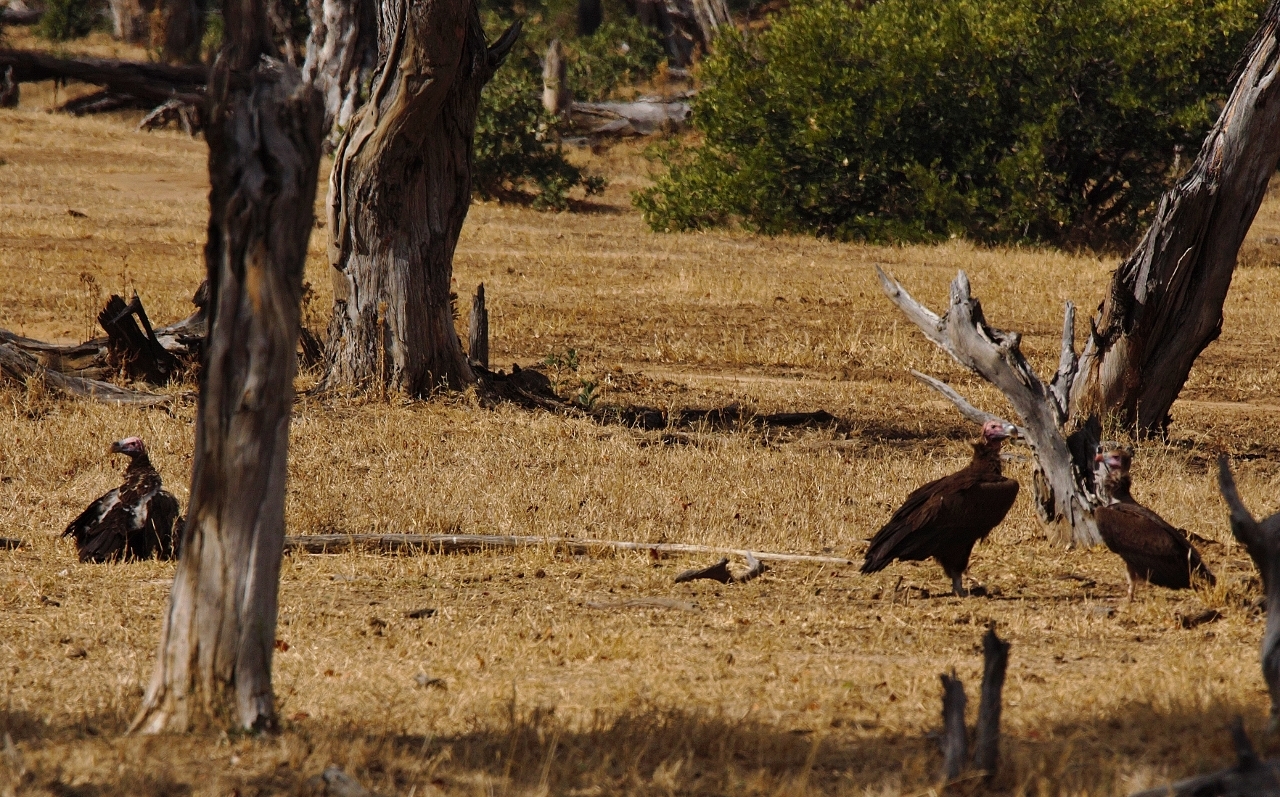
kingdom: Animalia
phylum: Chordata
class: Aves
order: Accipitriformes
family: Accipitridae
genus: Torgos
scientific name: Torgos tracheliotos
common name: Lappet-faced vulture
